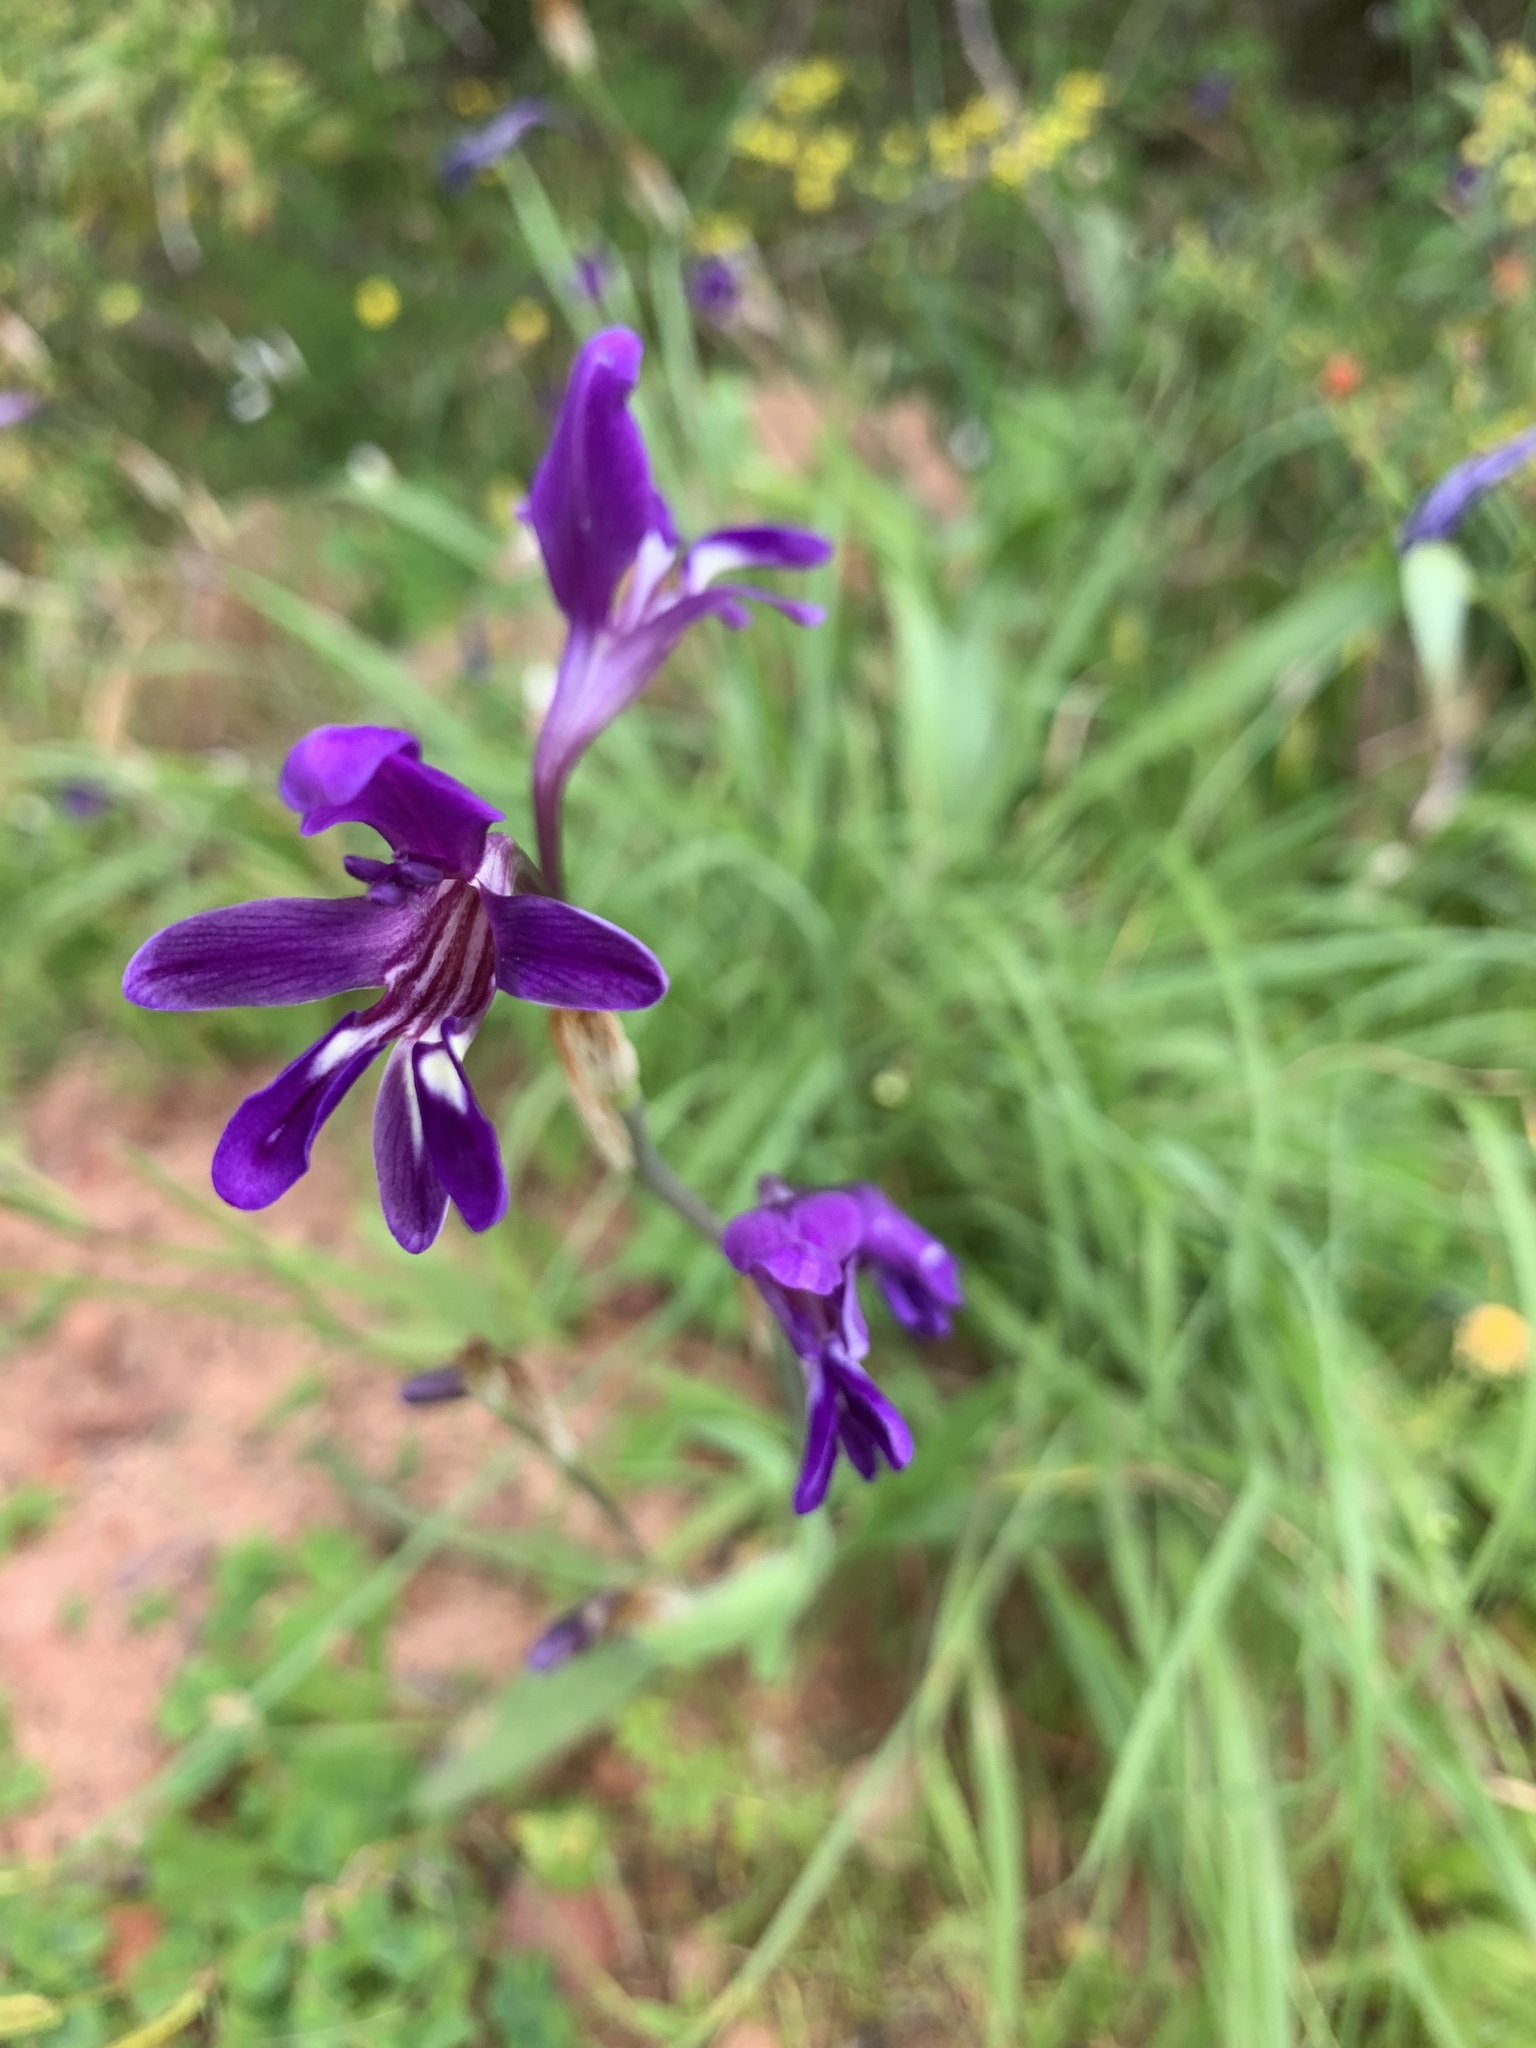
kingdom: Plantae
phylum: Tracheophyta
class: Liliopsida
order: Asparagales
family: Iridaceae
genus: Sparaxis
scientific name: Sparaxis metelerkampiae
